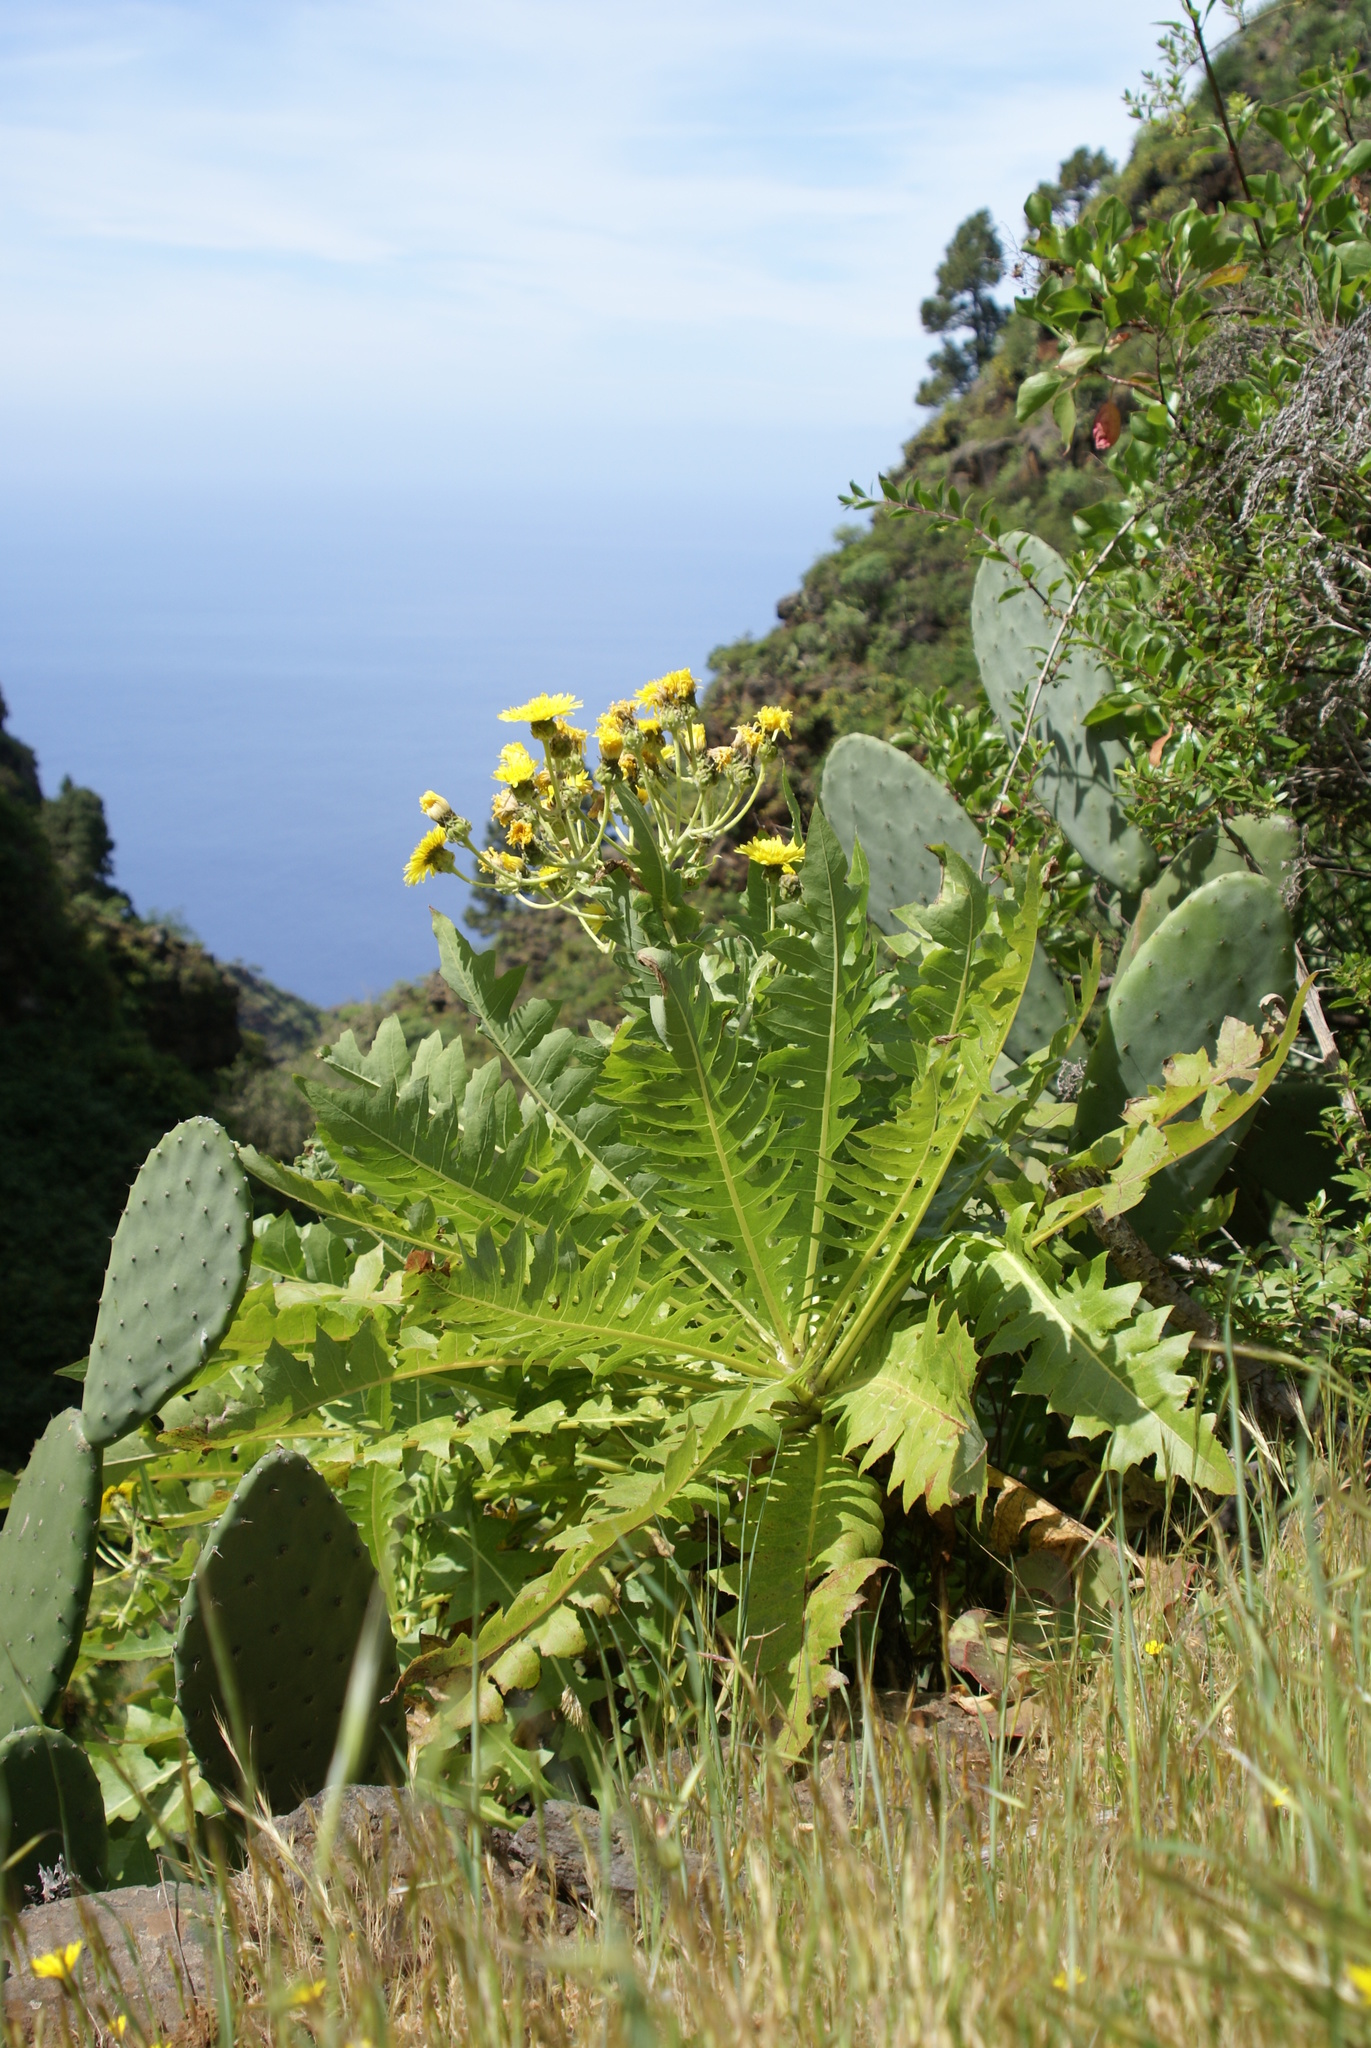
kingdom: Plantae
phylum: Tracheophyta
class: Magnoliopsida
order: Asterales
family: Asteraceae
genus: Sonchus
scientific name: Sonchus hierrensis
